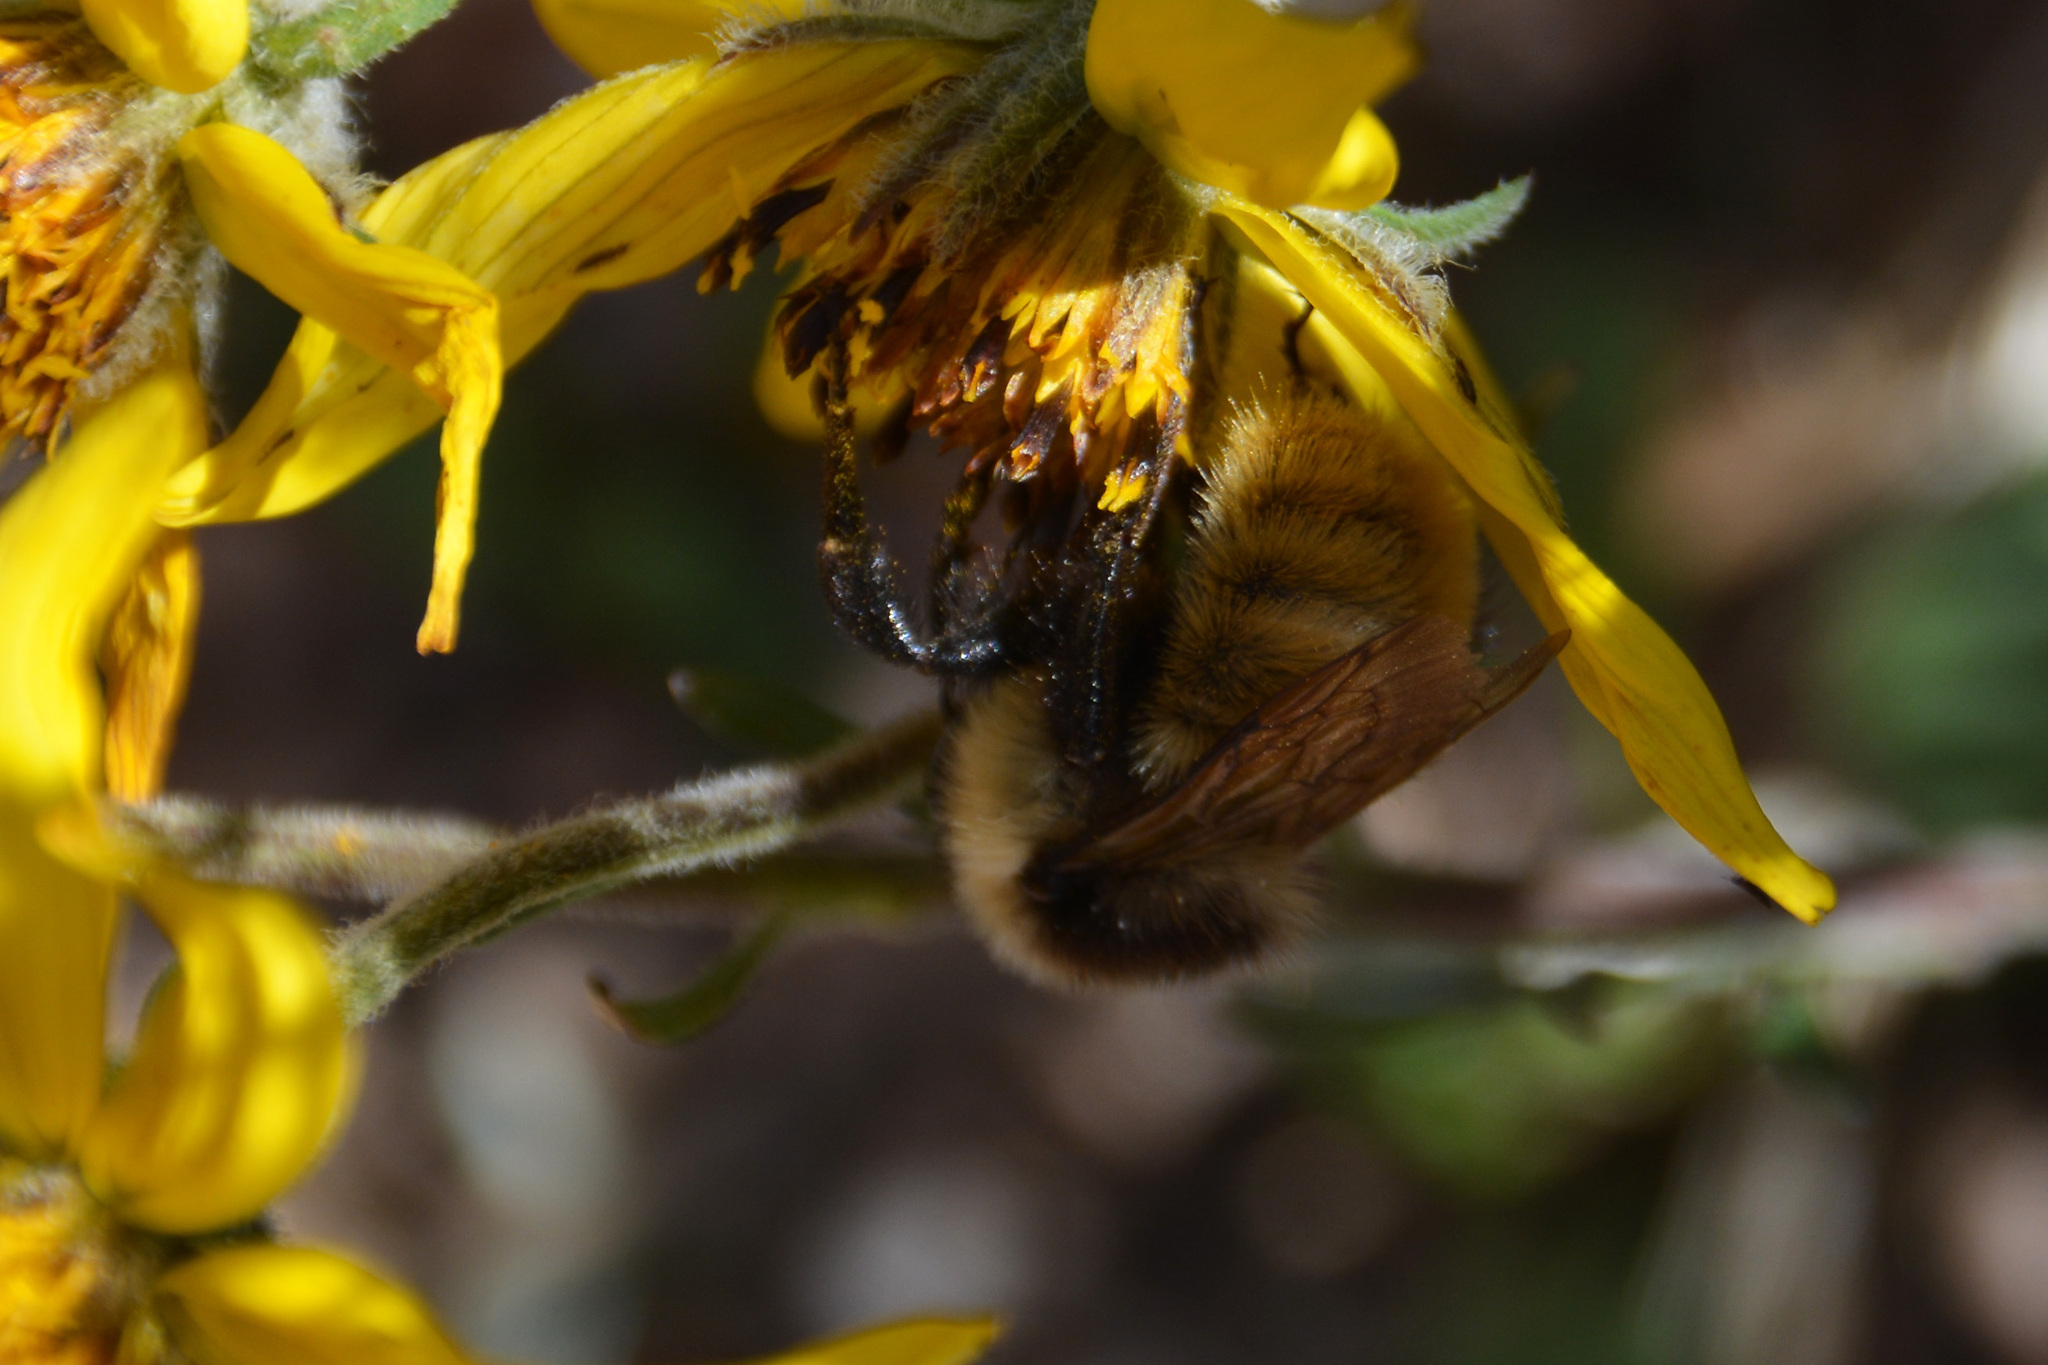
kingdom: Animalia
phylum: Arthropoda
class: Insecta
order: Hymenoptera
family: Apidae
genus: Bombus
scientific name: Bombus opifex
